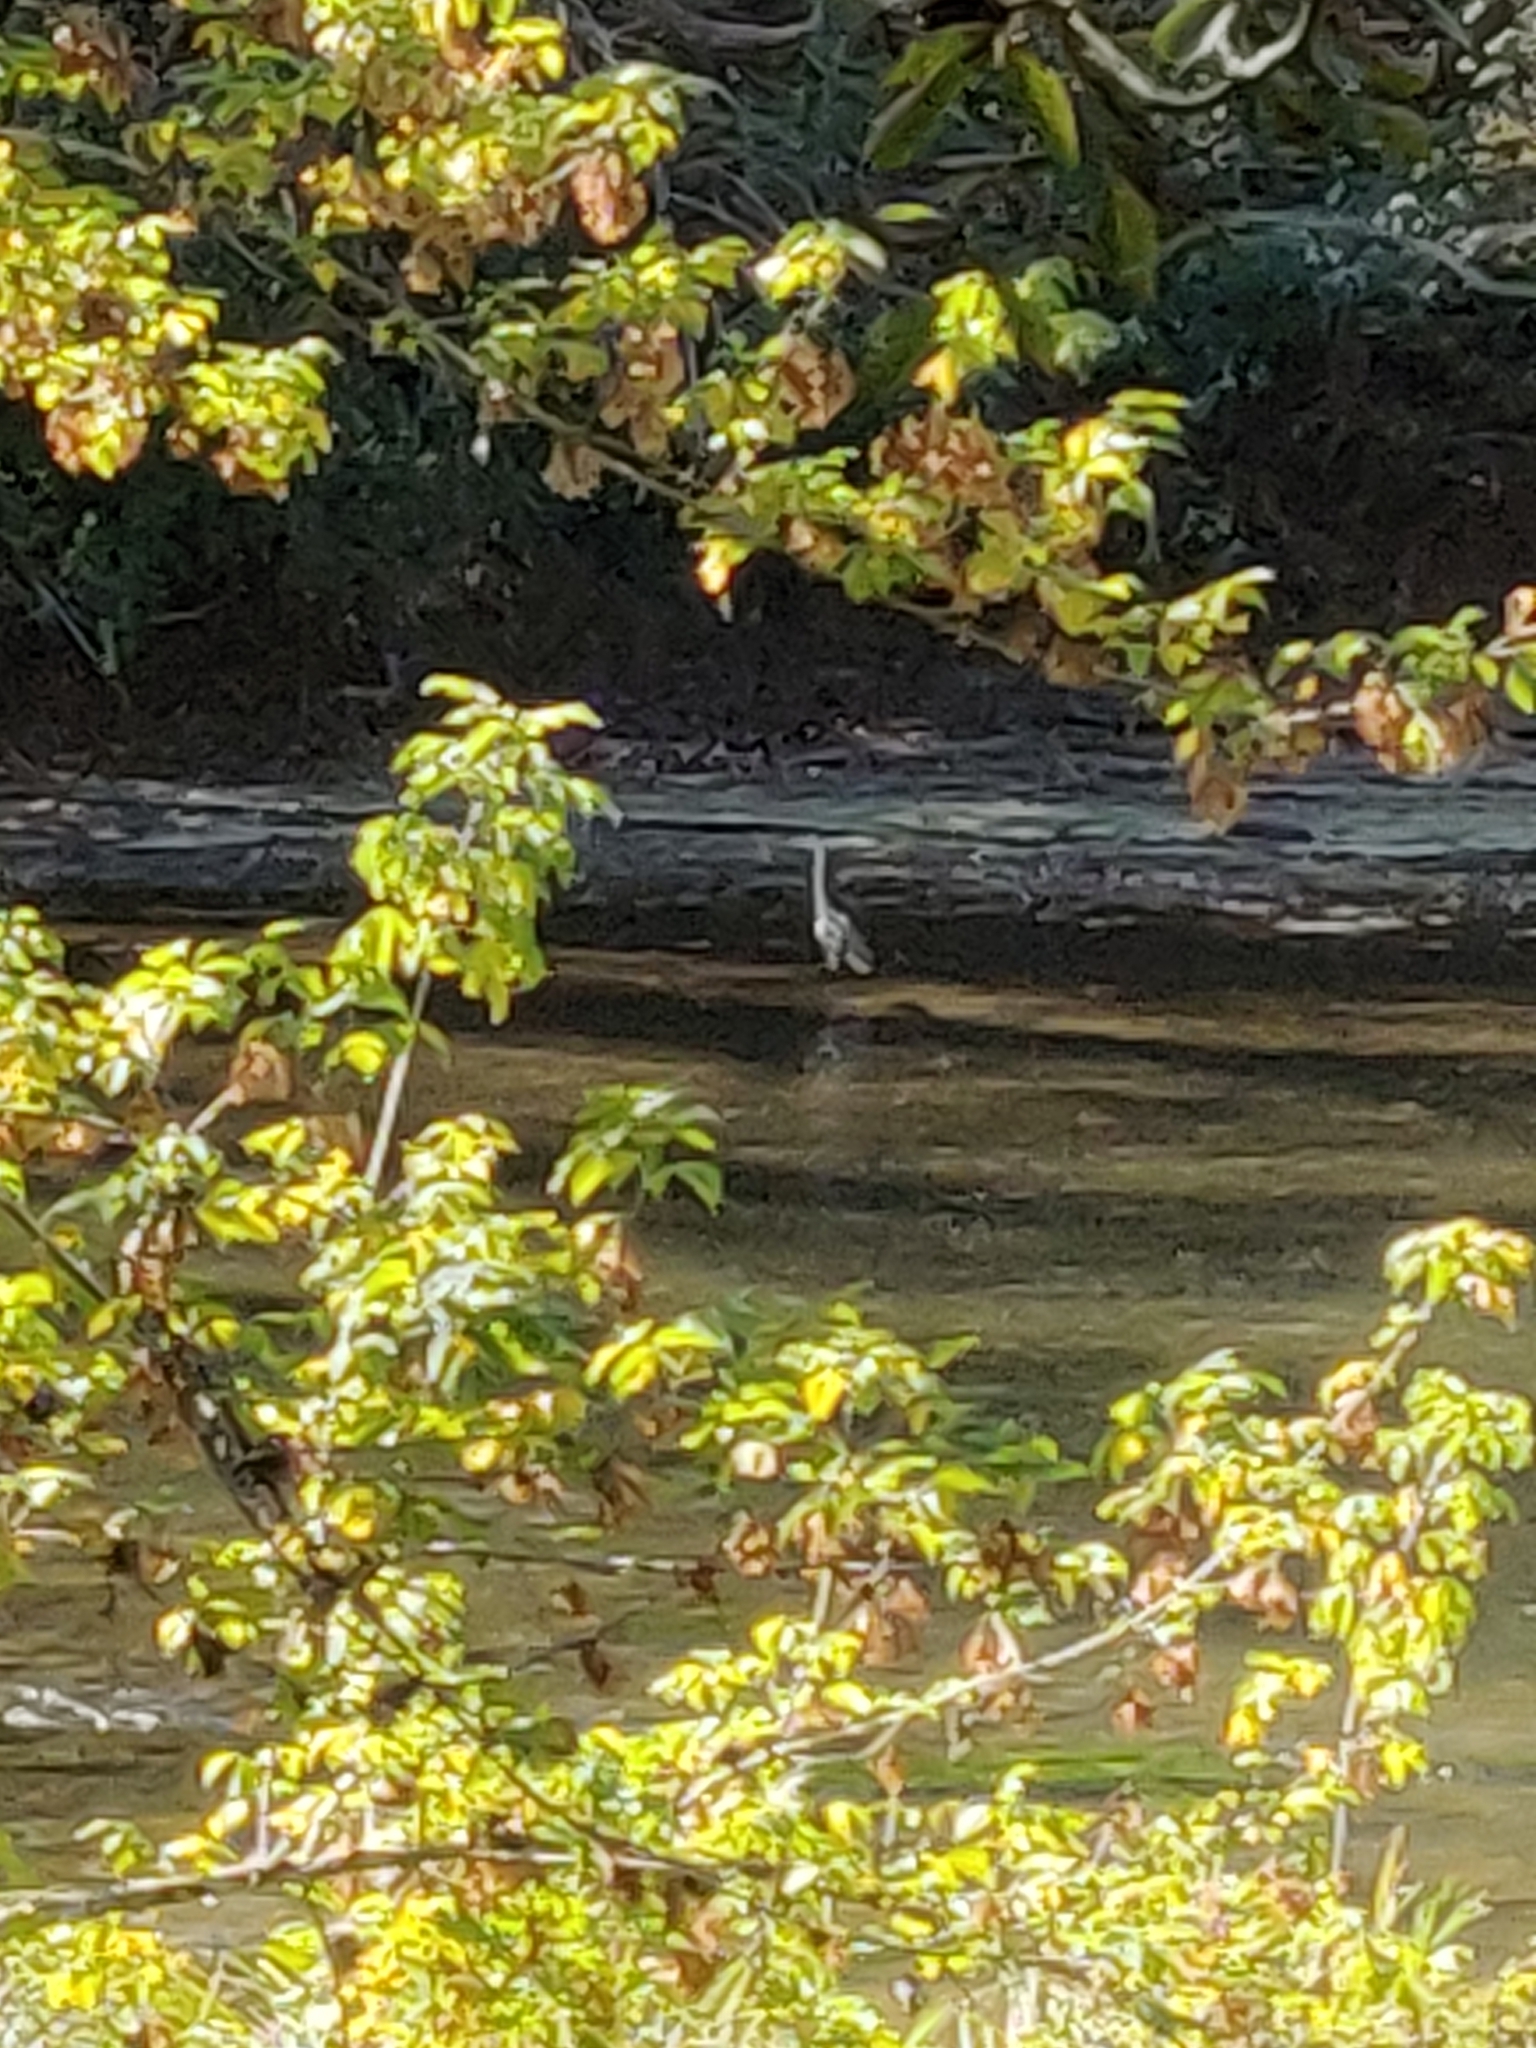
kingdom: Animalia
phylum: Chordata
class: Aves
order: Pelecaniformes
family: Ardeidae
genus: Ardea
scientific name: Ardea cinerea
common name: Grey heron
